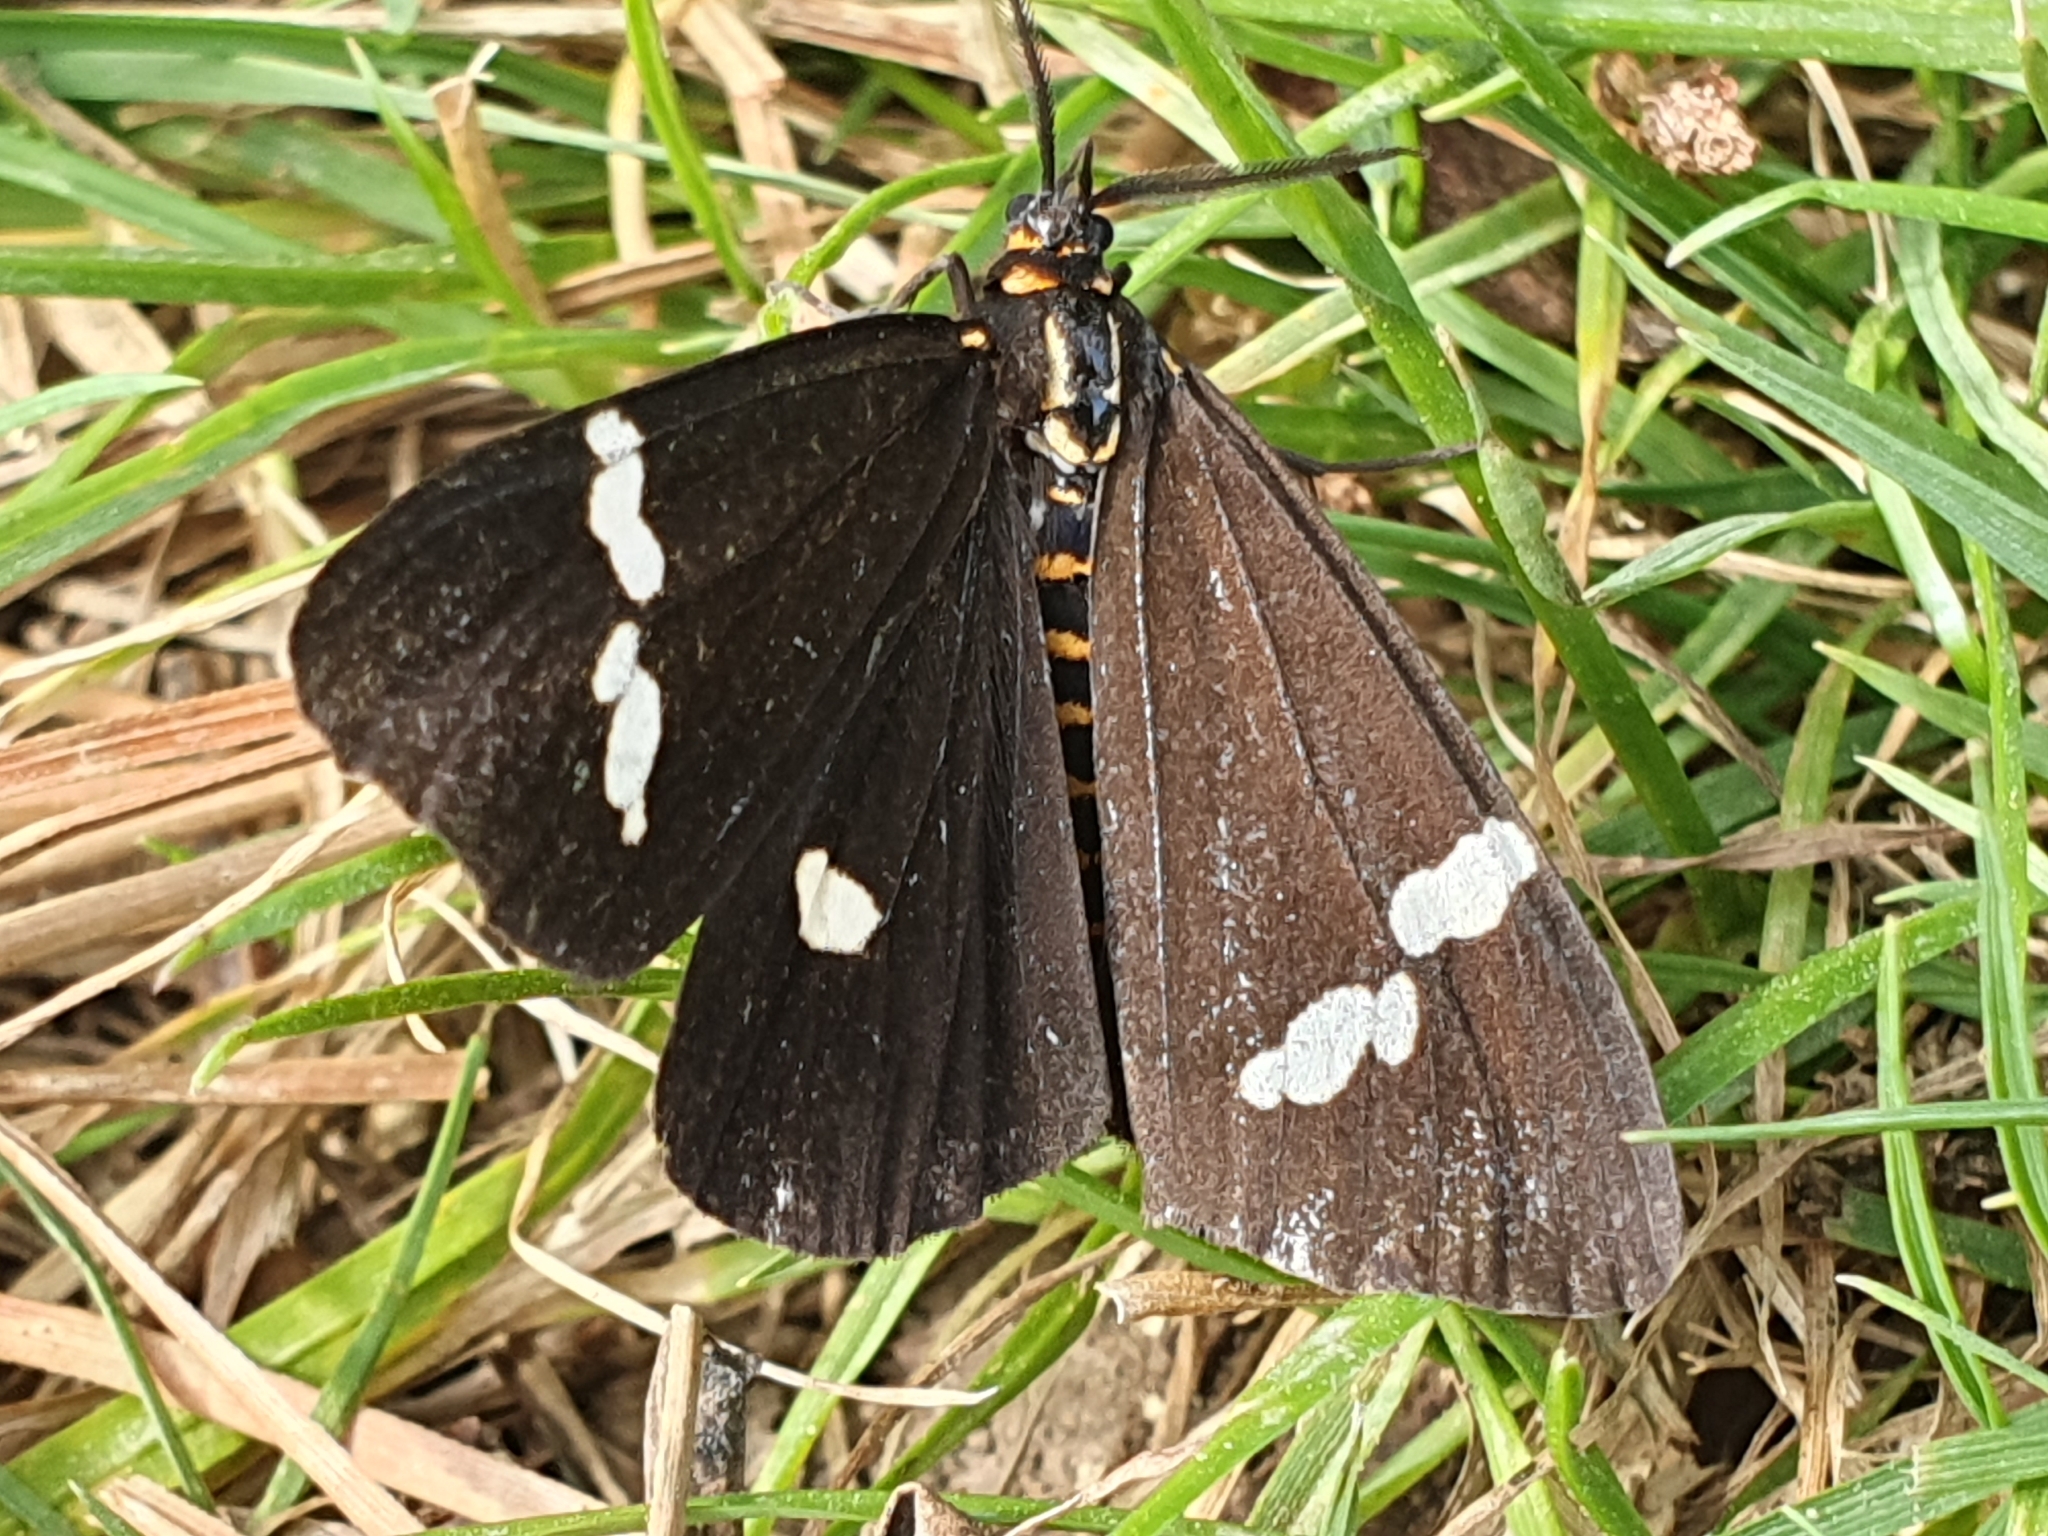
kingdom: Animalia
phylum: Arthropoda
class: Insecta
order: Lepidoptera
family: Erebidae
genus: Nyctemera
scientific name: Nyctemera annulatum
